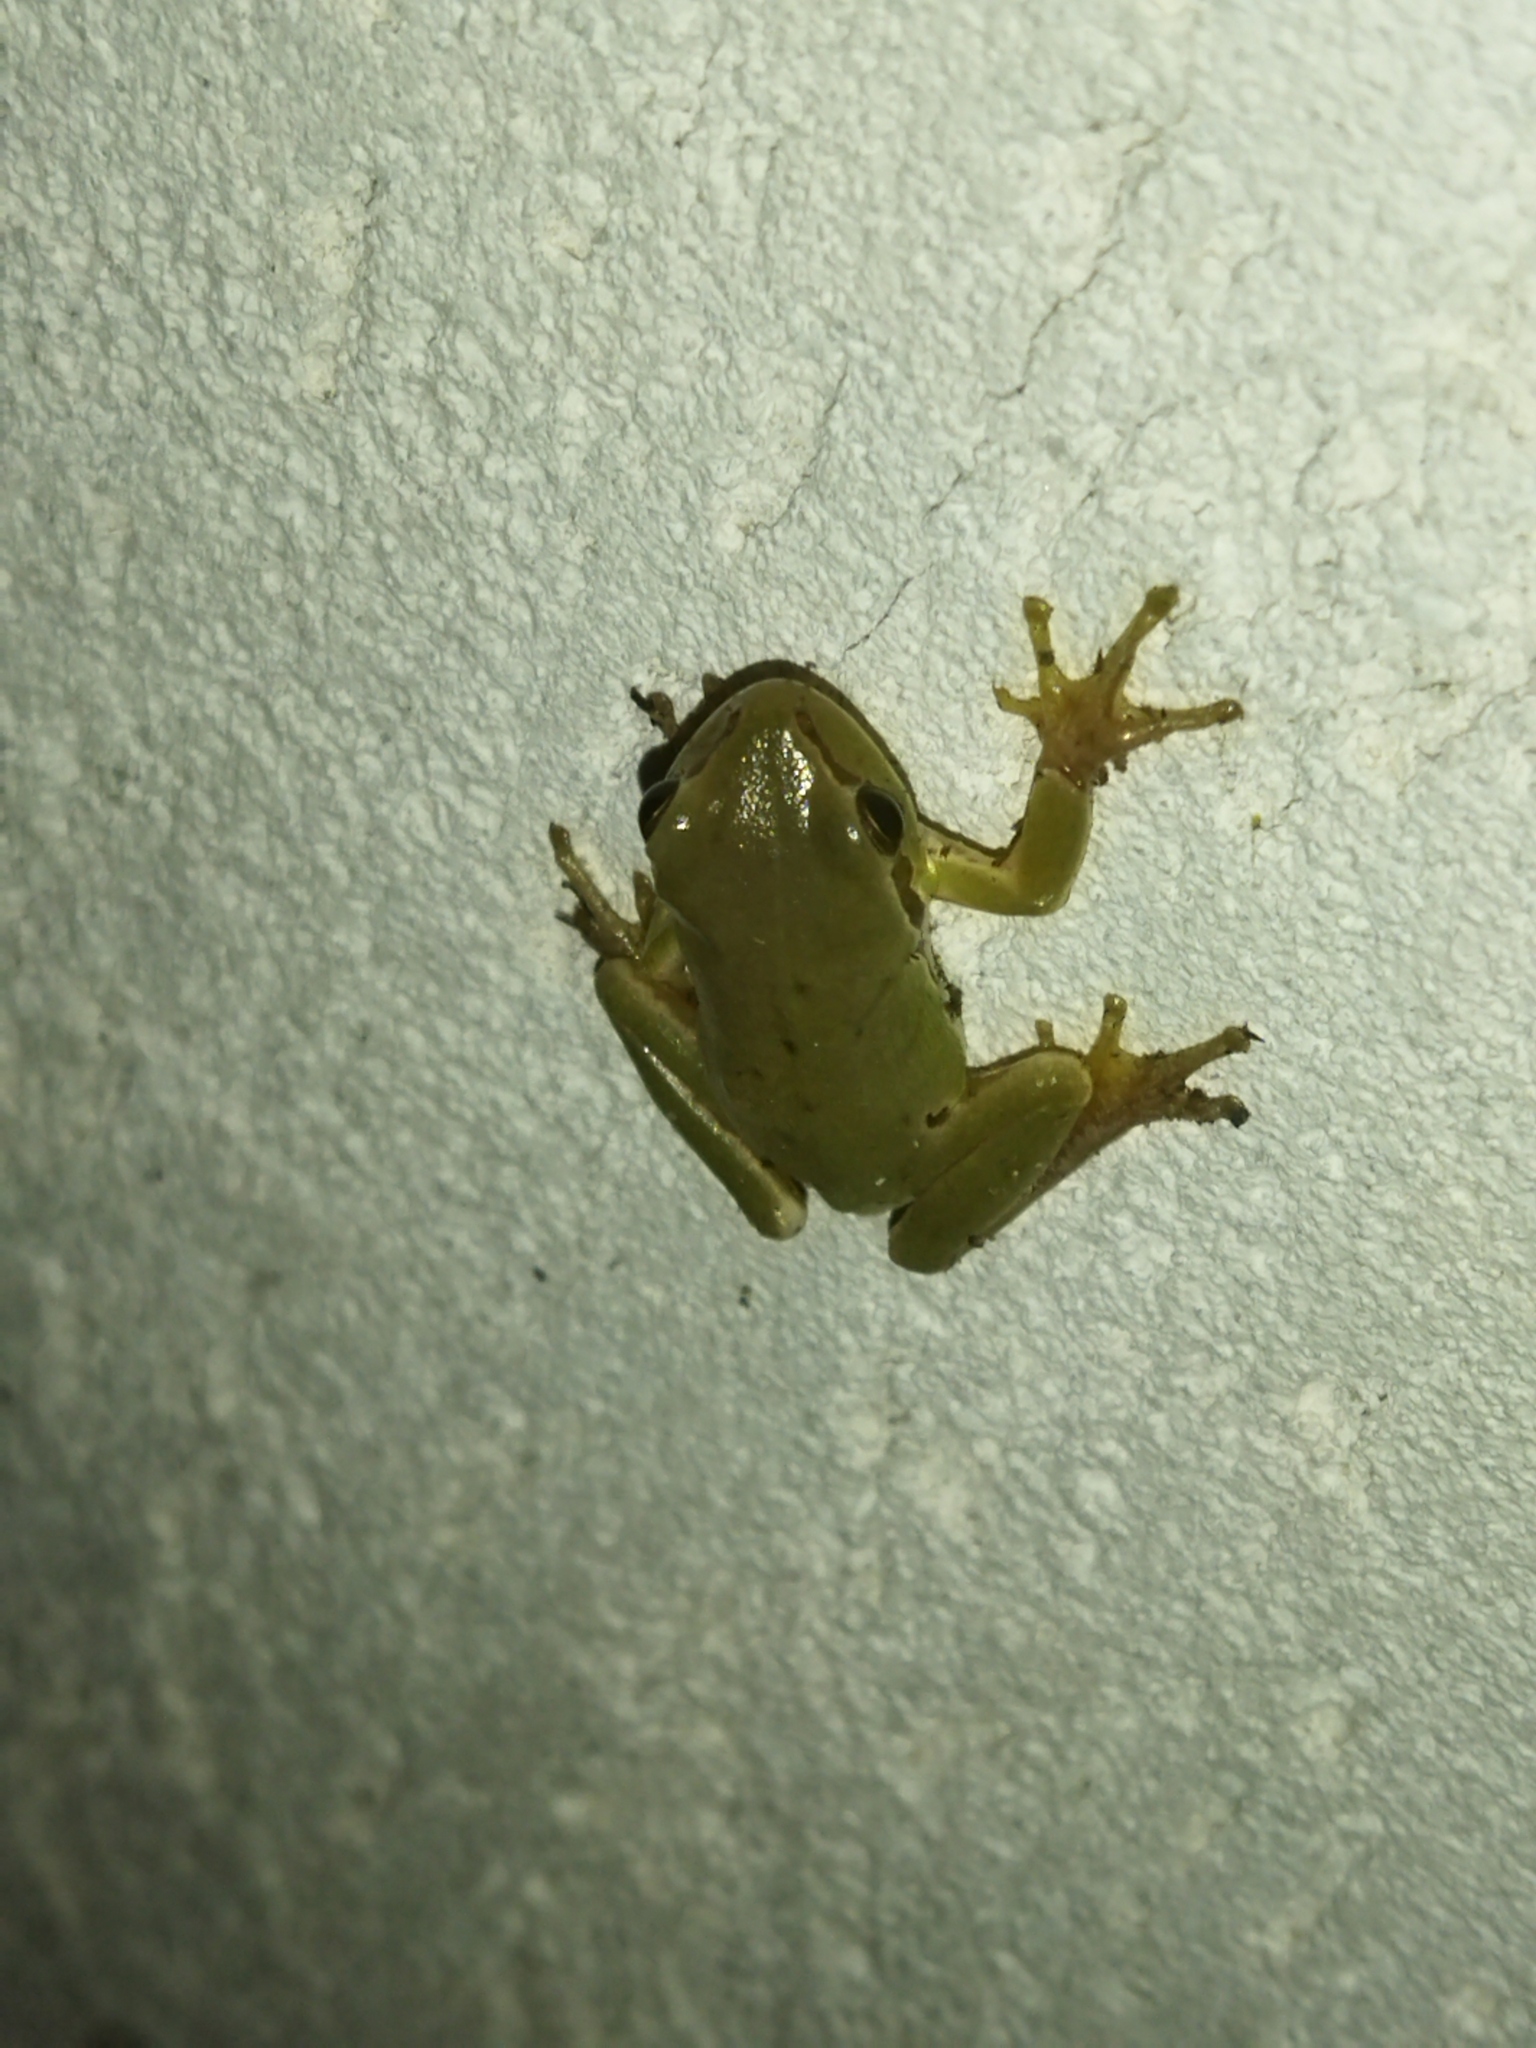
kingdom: Animalia
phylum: Chordata
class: Amphibia
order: Anura
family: Hylidae
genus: Hyla
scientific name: Hyla orientalis
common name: Caucasian treefrog
